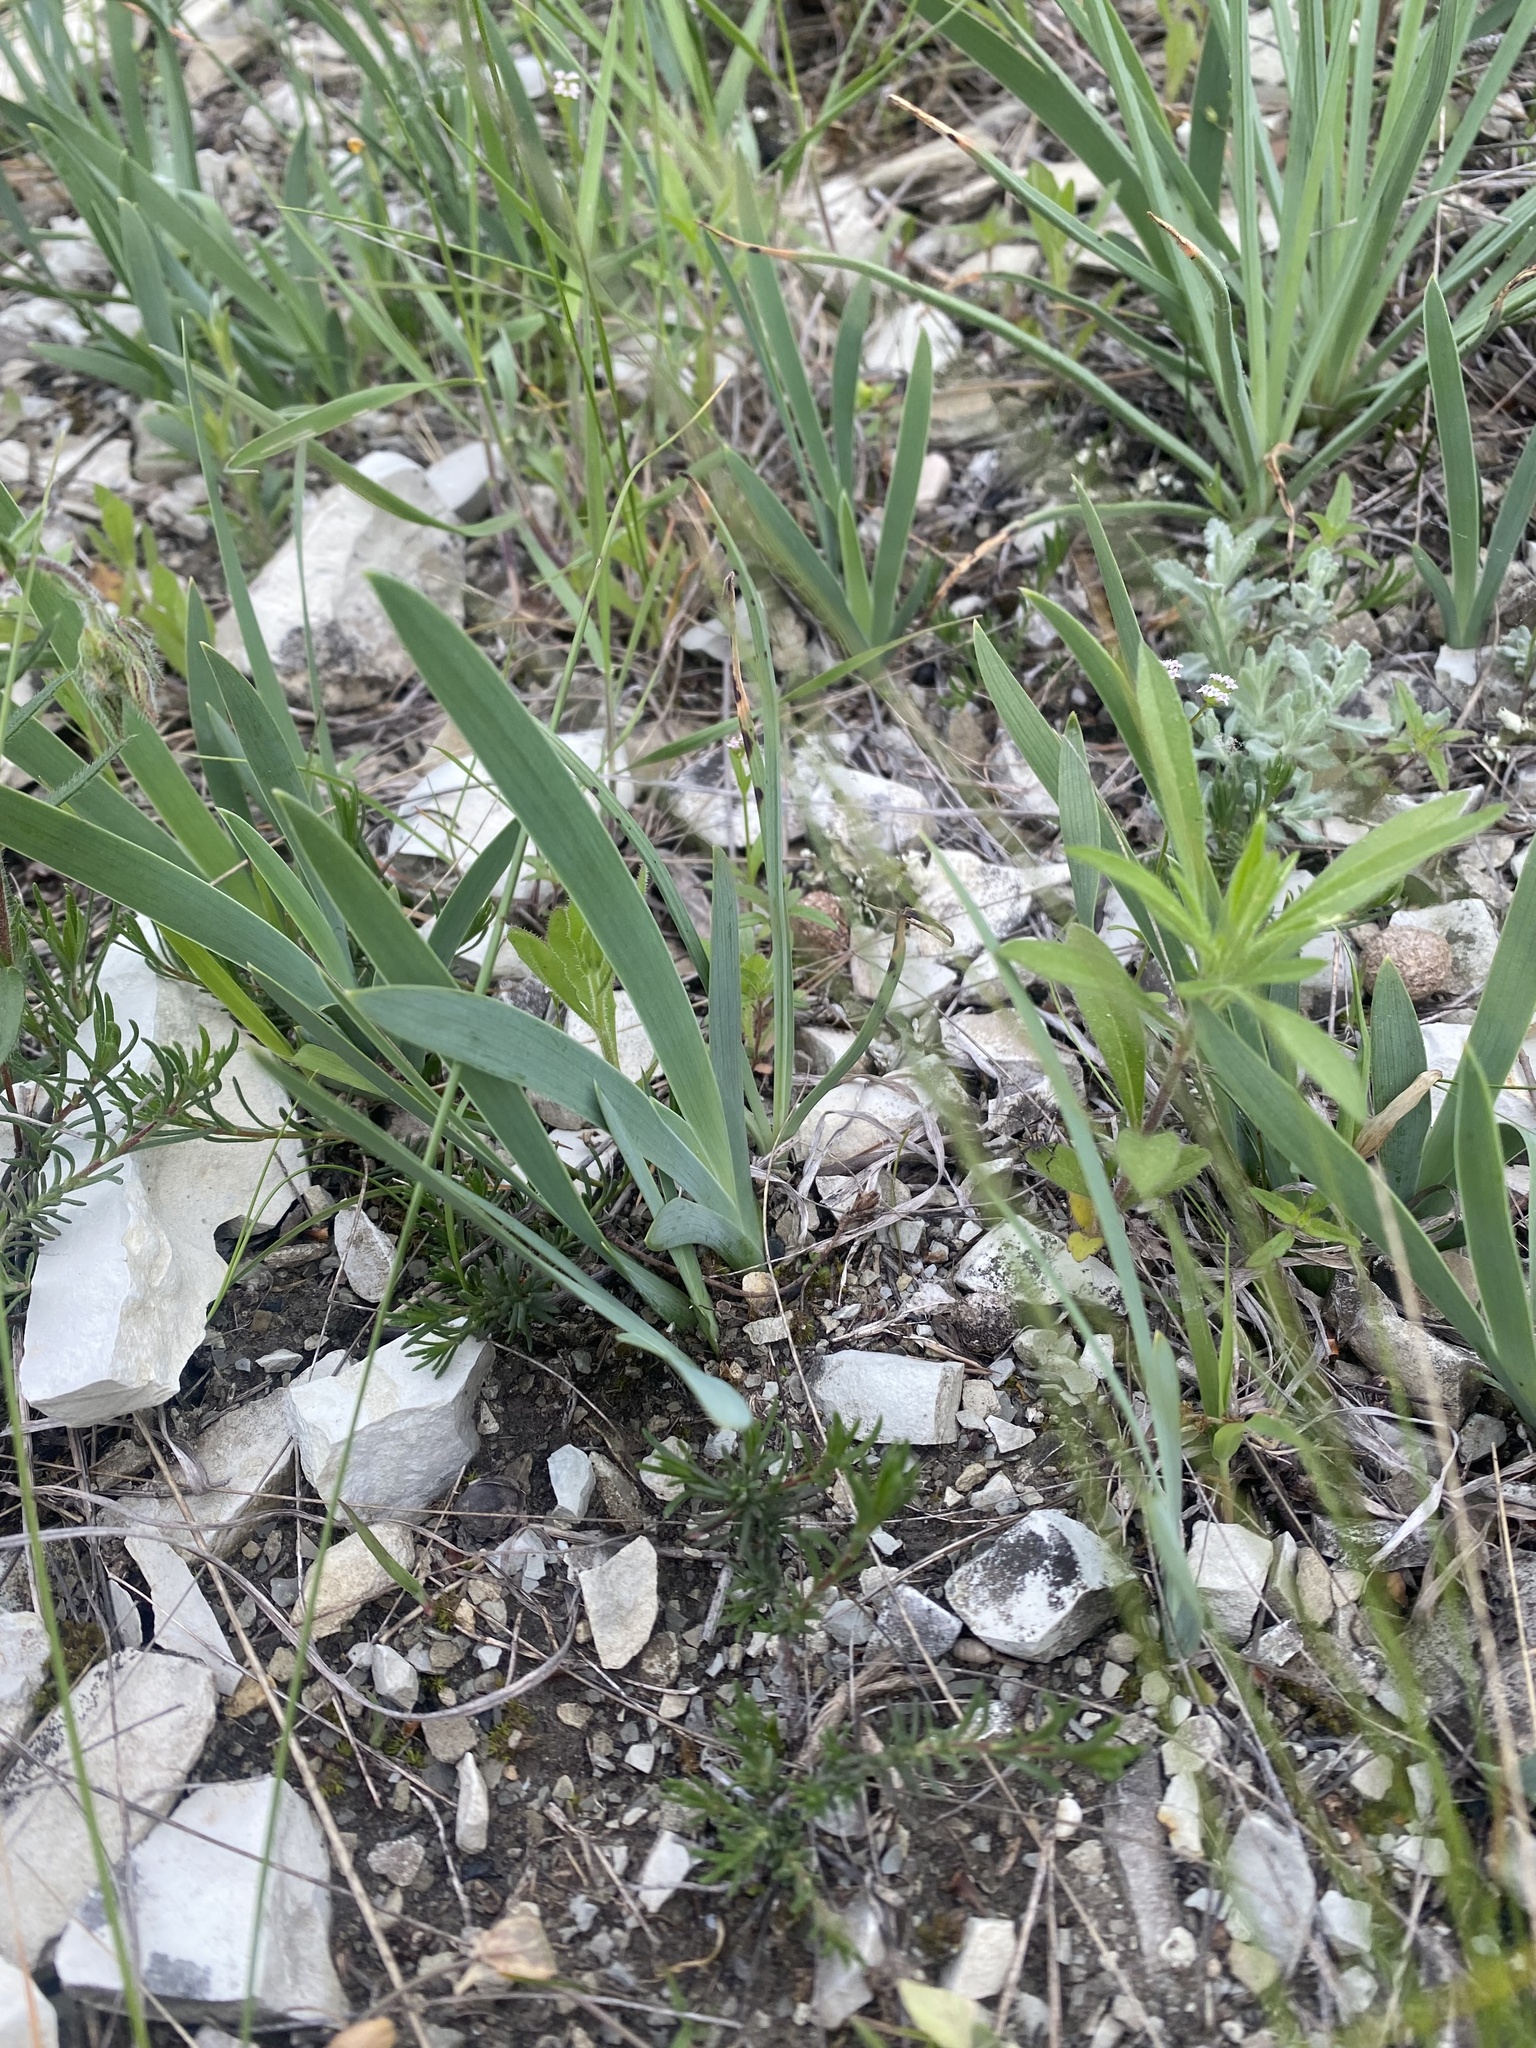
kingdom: Plantae
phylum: Tracheophyta
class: Liliopsida
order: Asparagales
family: Iridaceae
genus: Iris
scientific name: Iris pumila
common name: Dwarf iris
